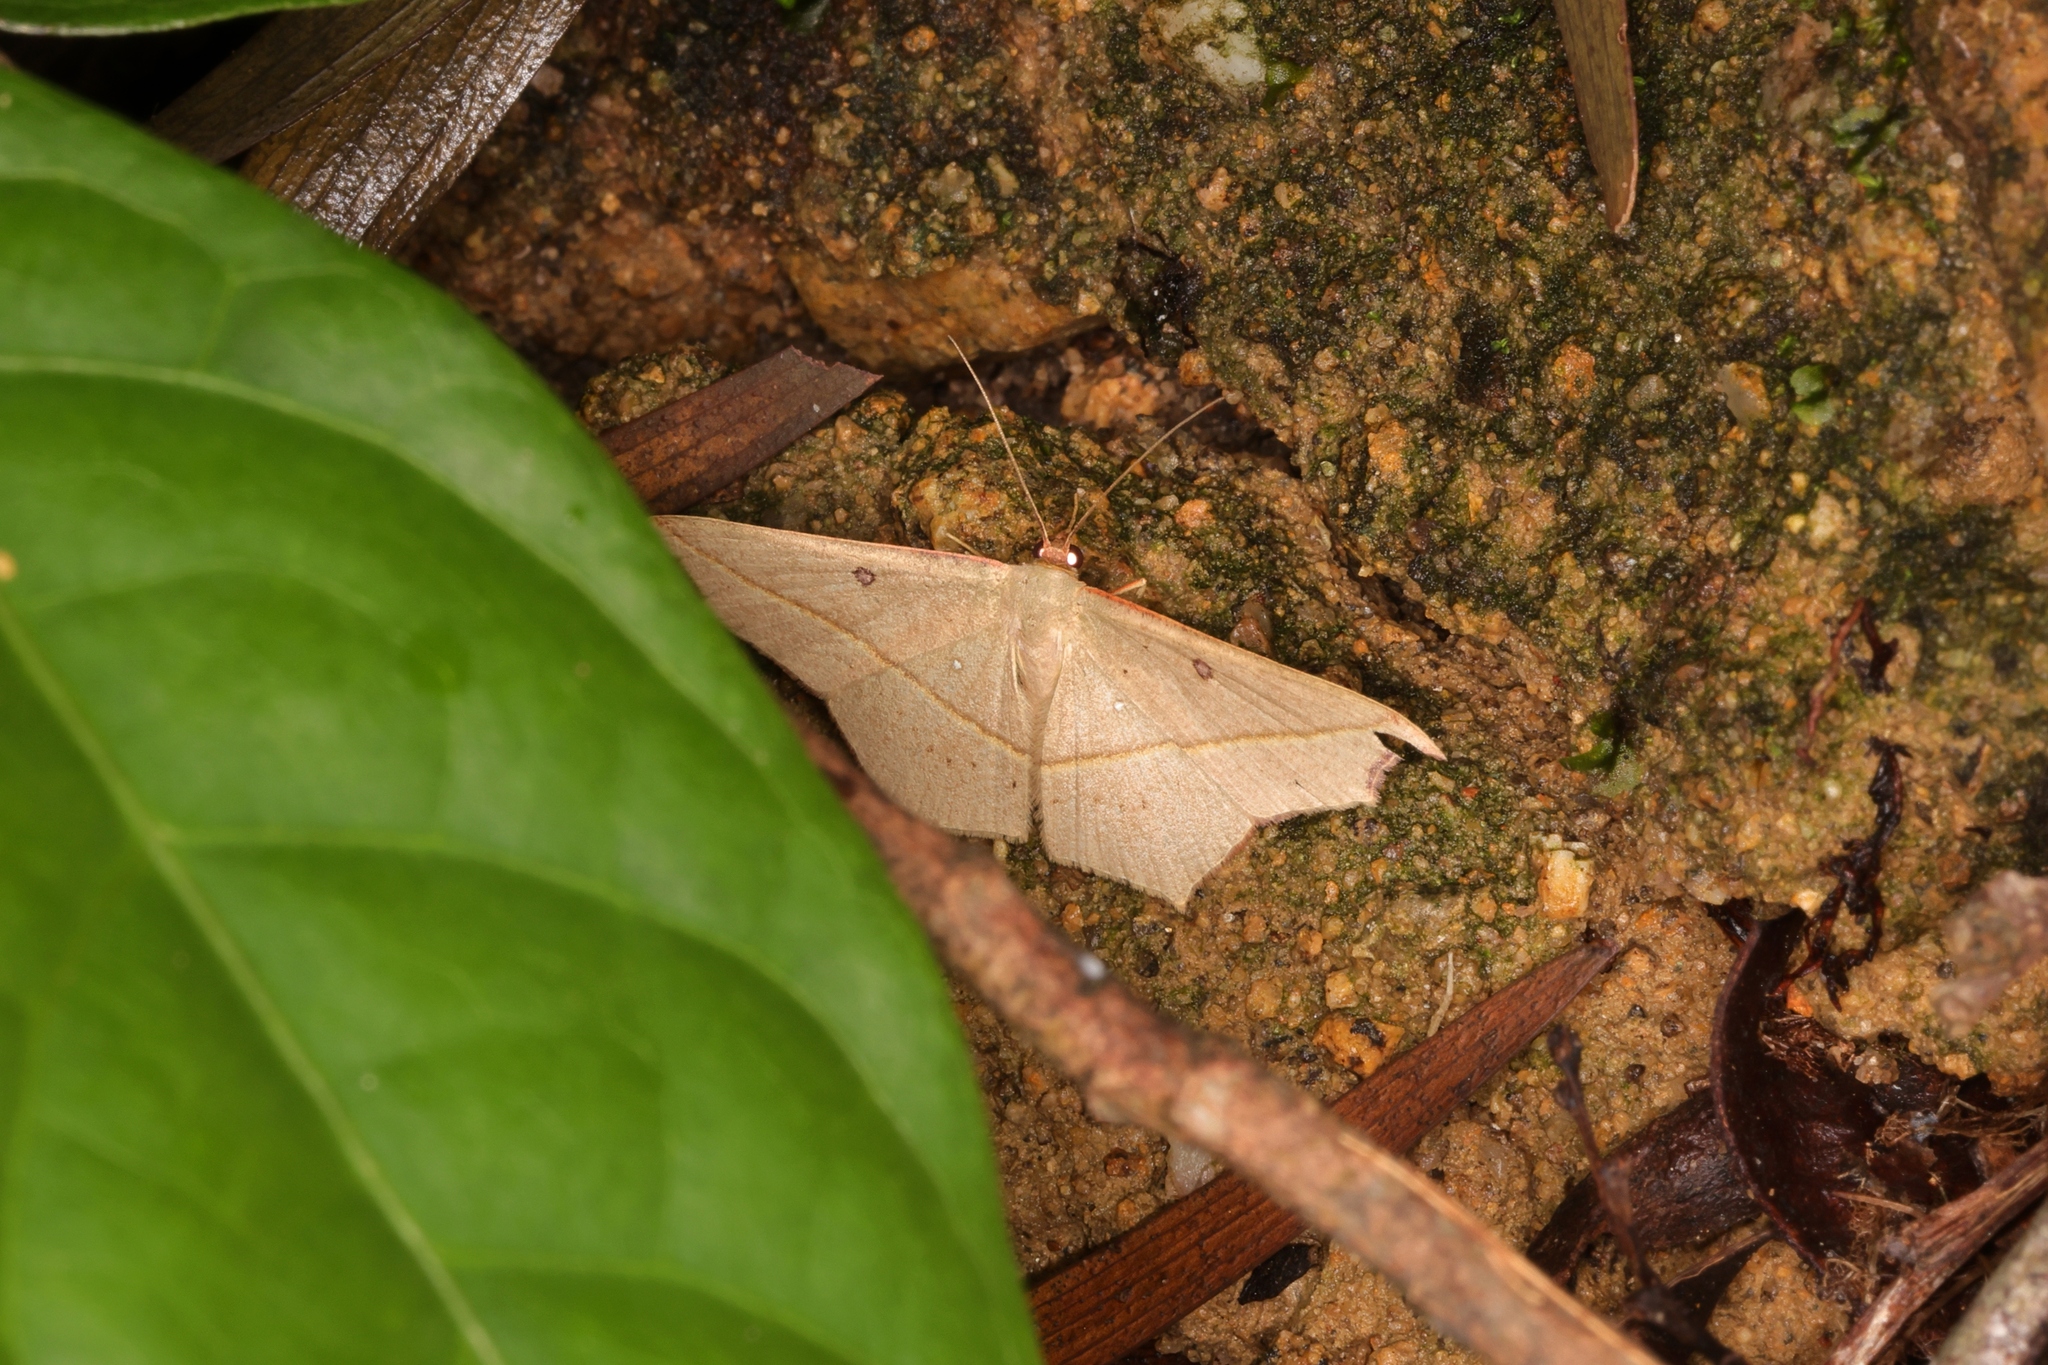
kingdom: Animalia
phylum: Arthropoda
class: Insecta
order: Lepidoptera
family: Geometridae
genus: Traminda
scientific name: Traminda aventiaria
